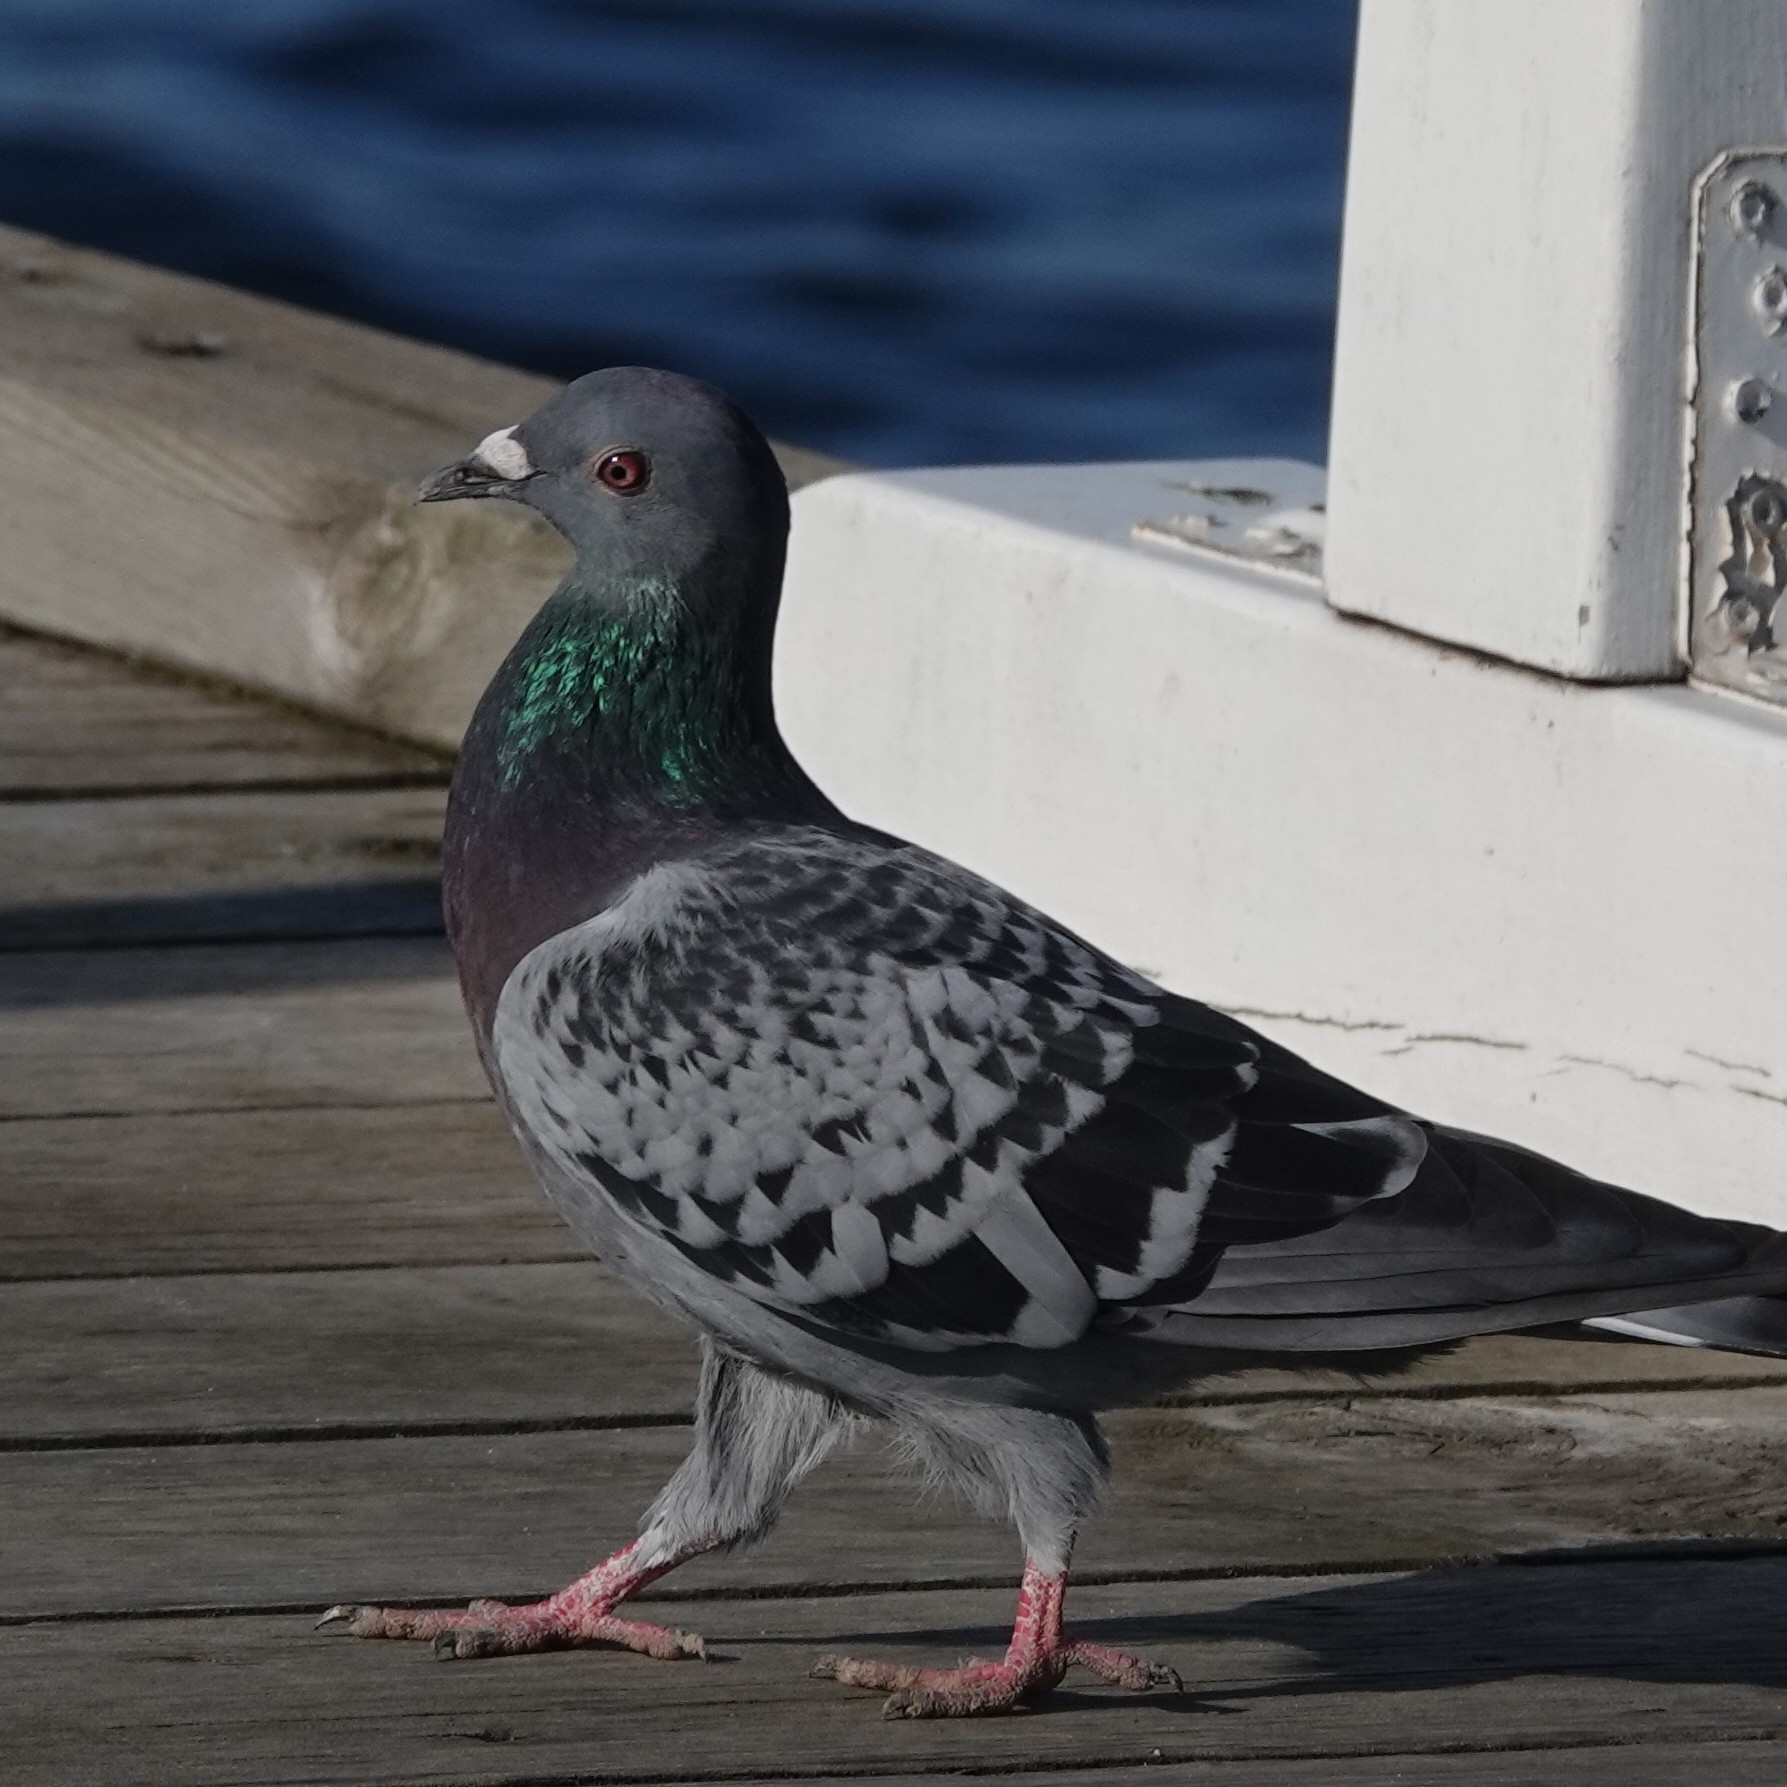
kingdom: Animalia
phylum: Chordata
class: Aves
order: Columbiformes
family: Columbidae
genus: Columba
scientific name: Columba livia
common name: Rock pigeon
